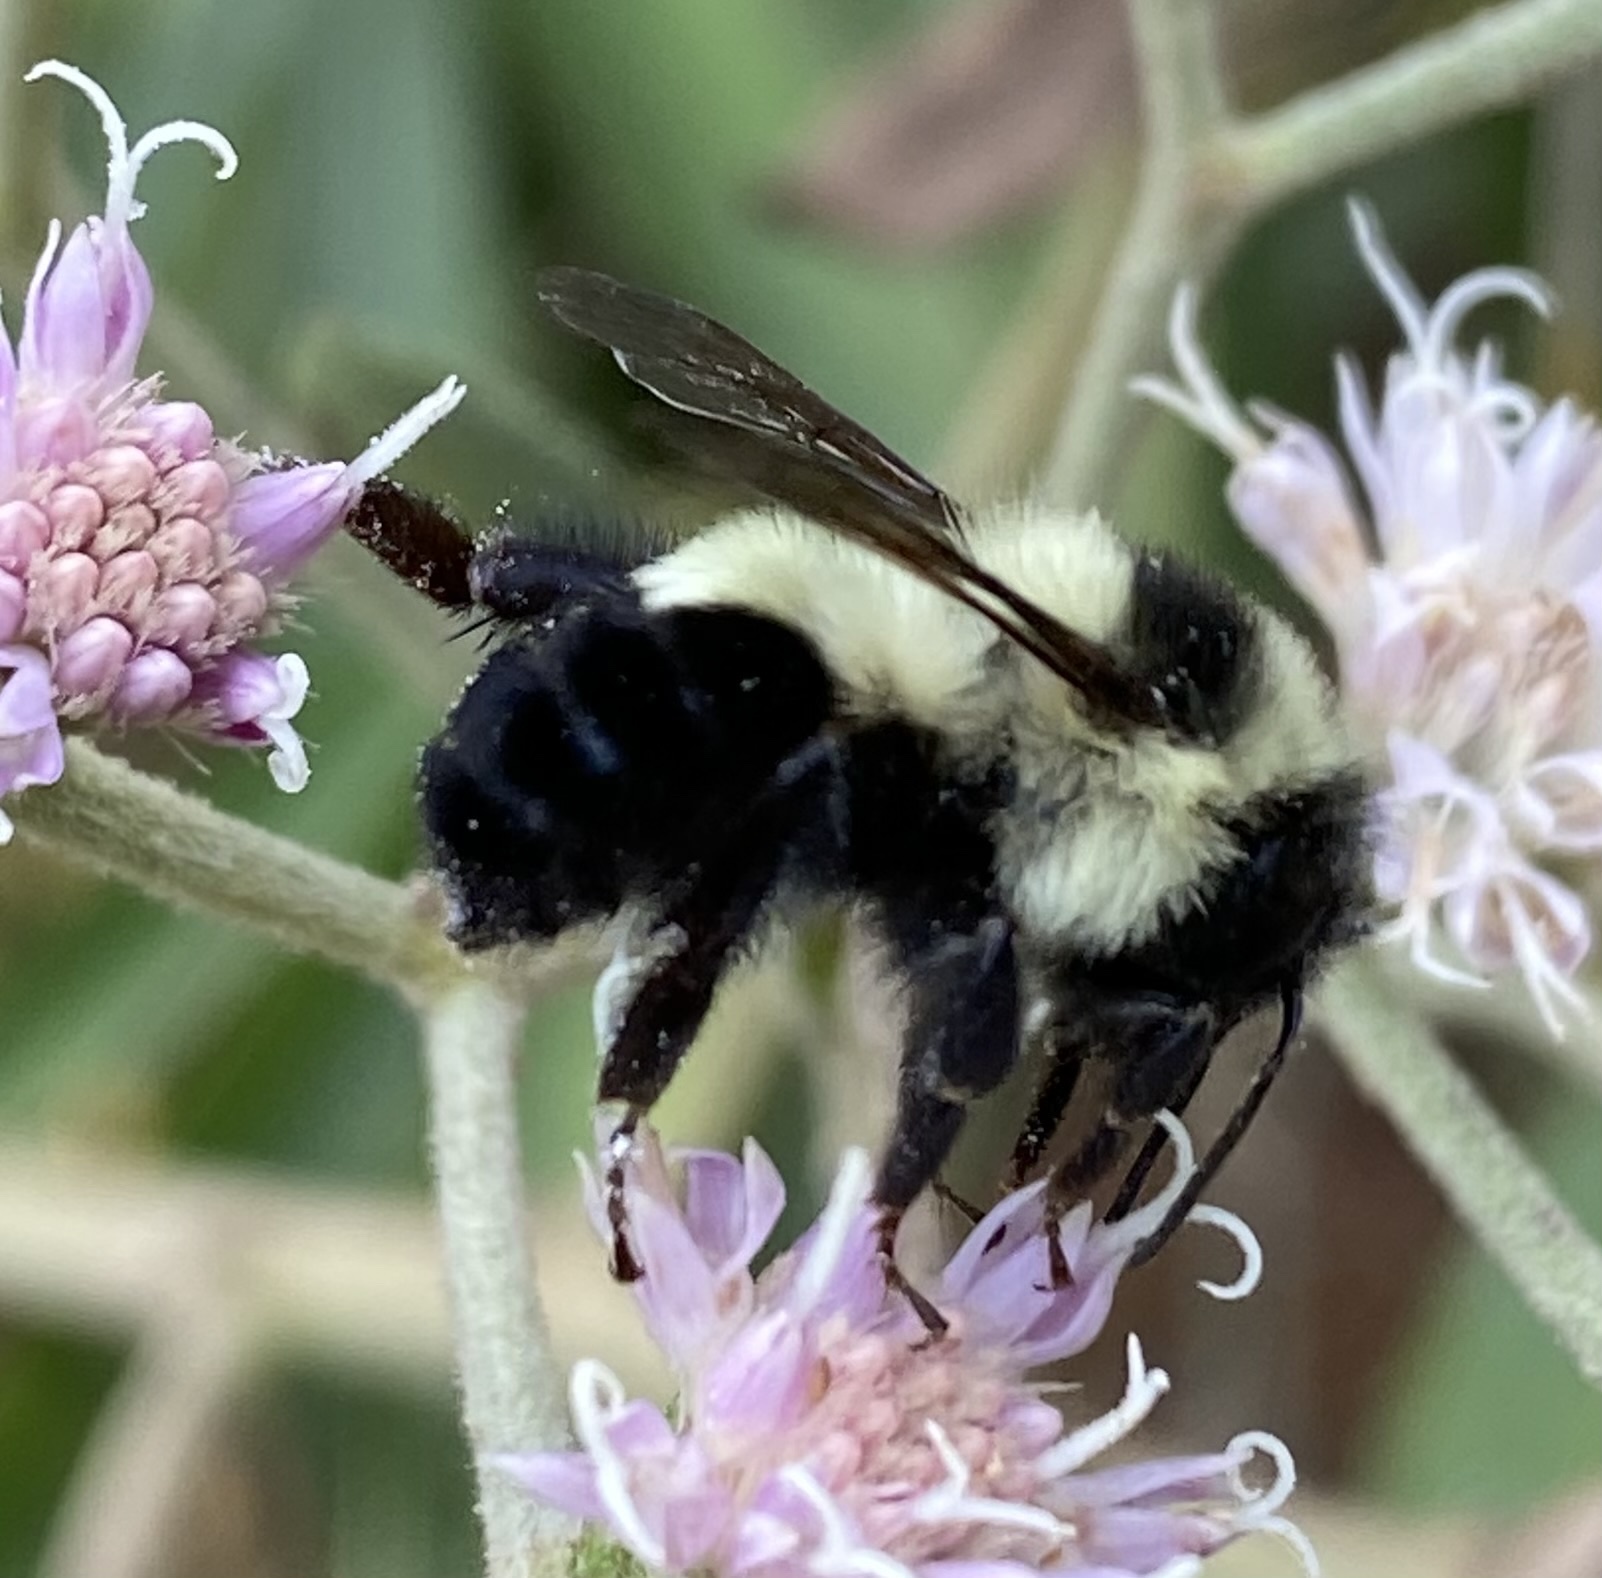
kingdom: Animalia
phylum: Arthropoda
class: Insecta
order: Hymenoptera
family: Apidae
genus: Bombus
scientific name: Bombus wilmattae
